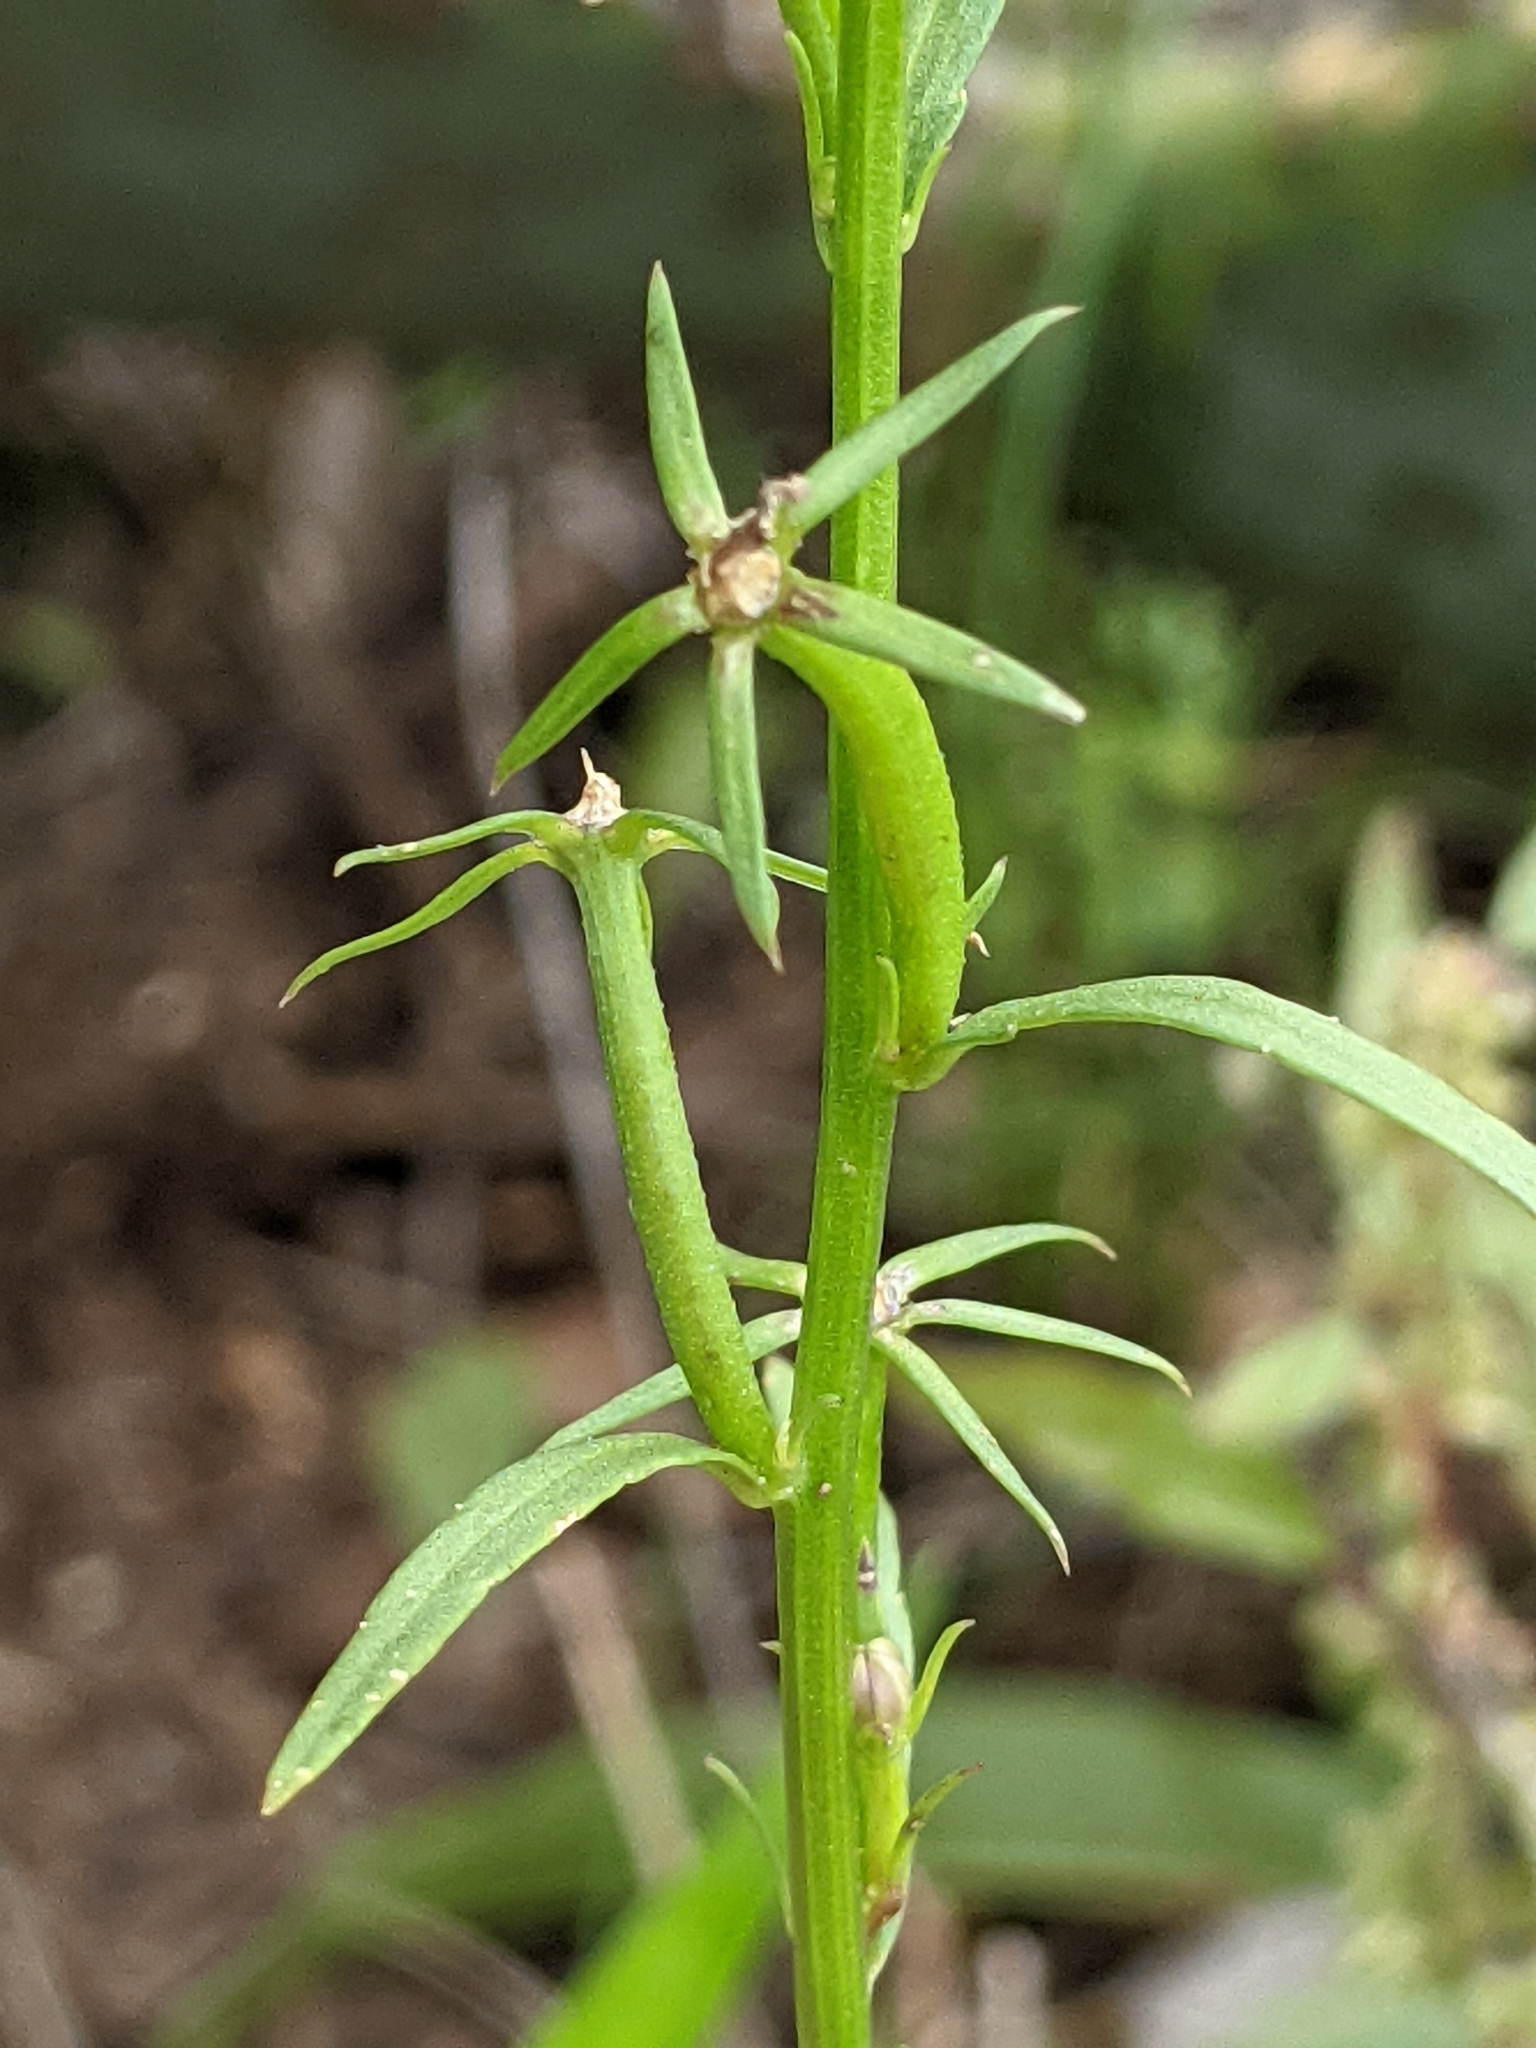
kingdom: Plantae
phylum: Tracheophyta
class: Magnoliopsida
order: Asterales
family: Campanulaceae
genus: Triodanis
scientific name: Triodanis leptocarpa
